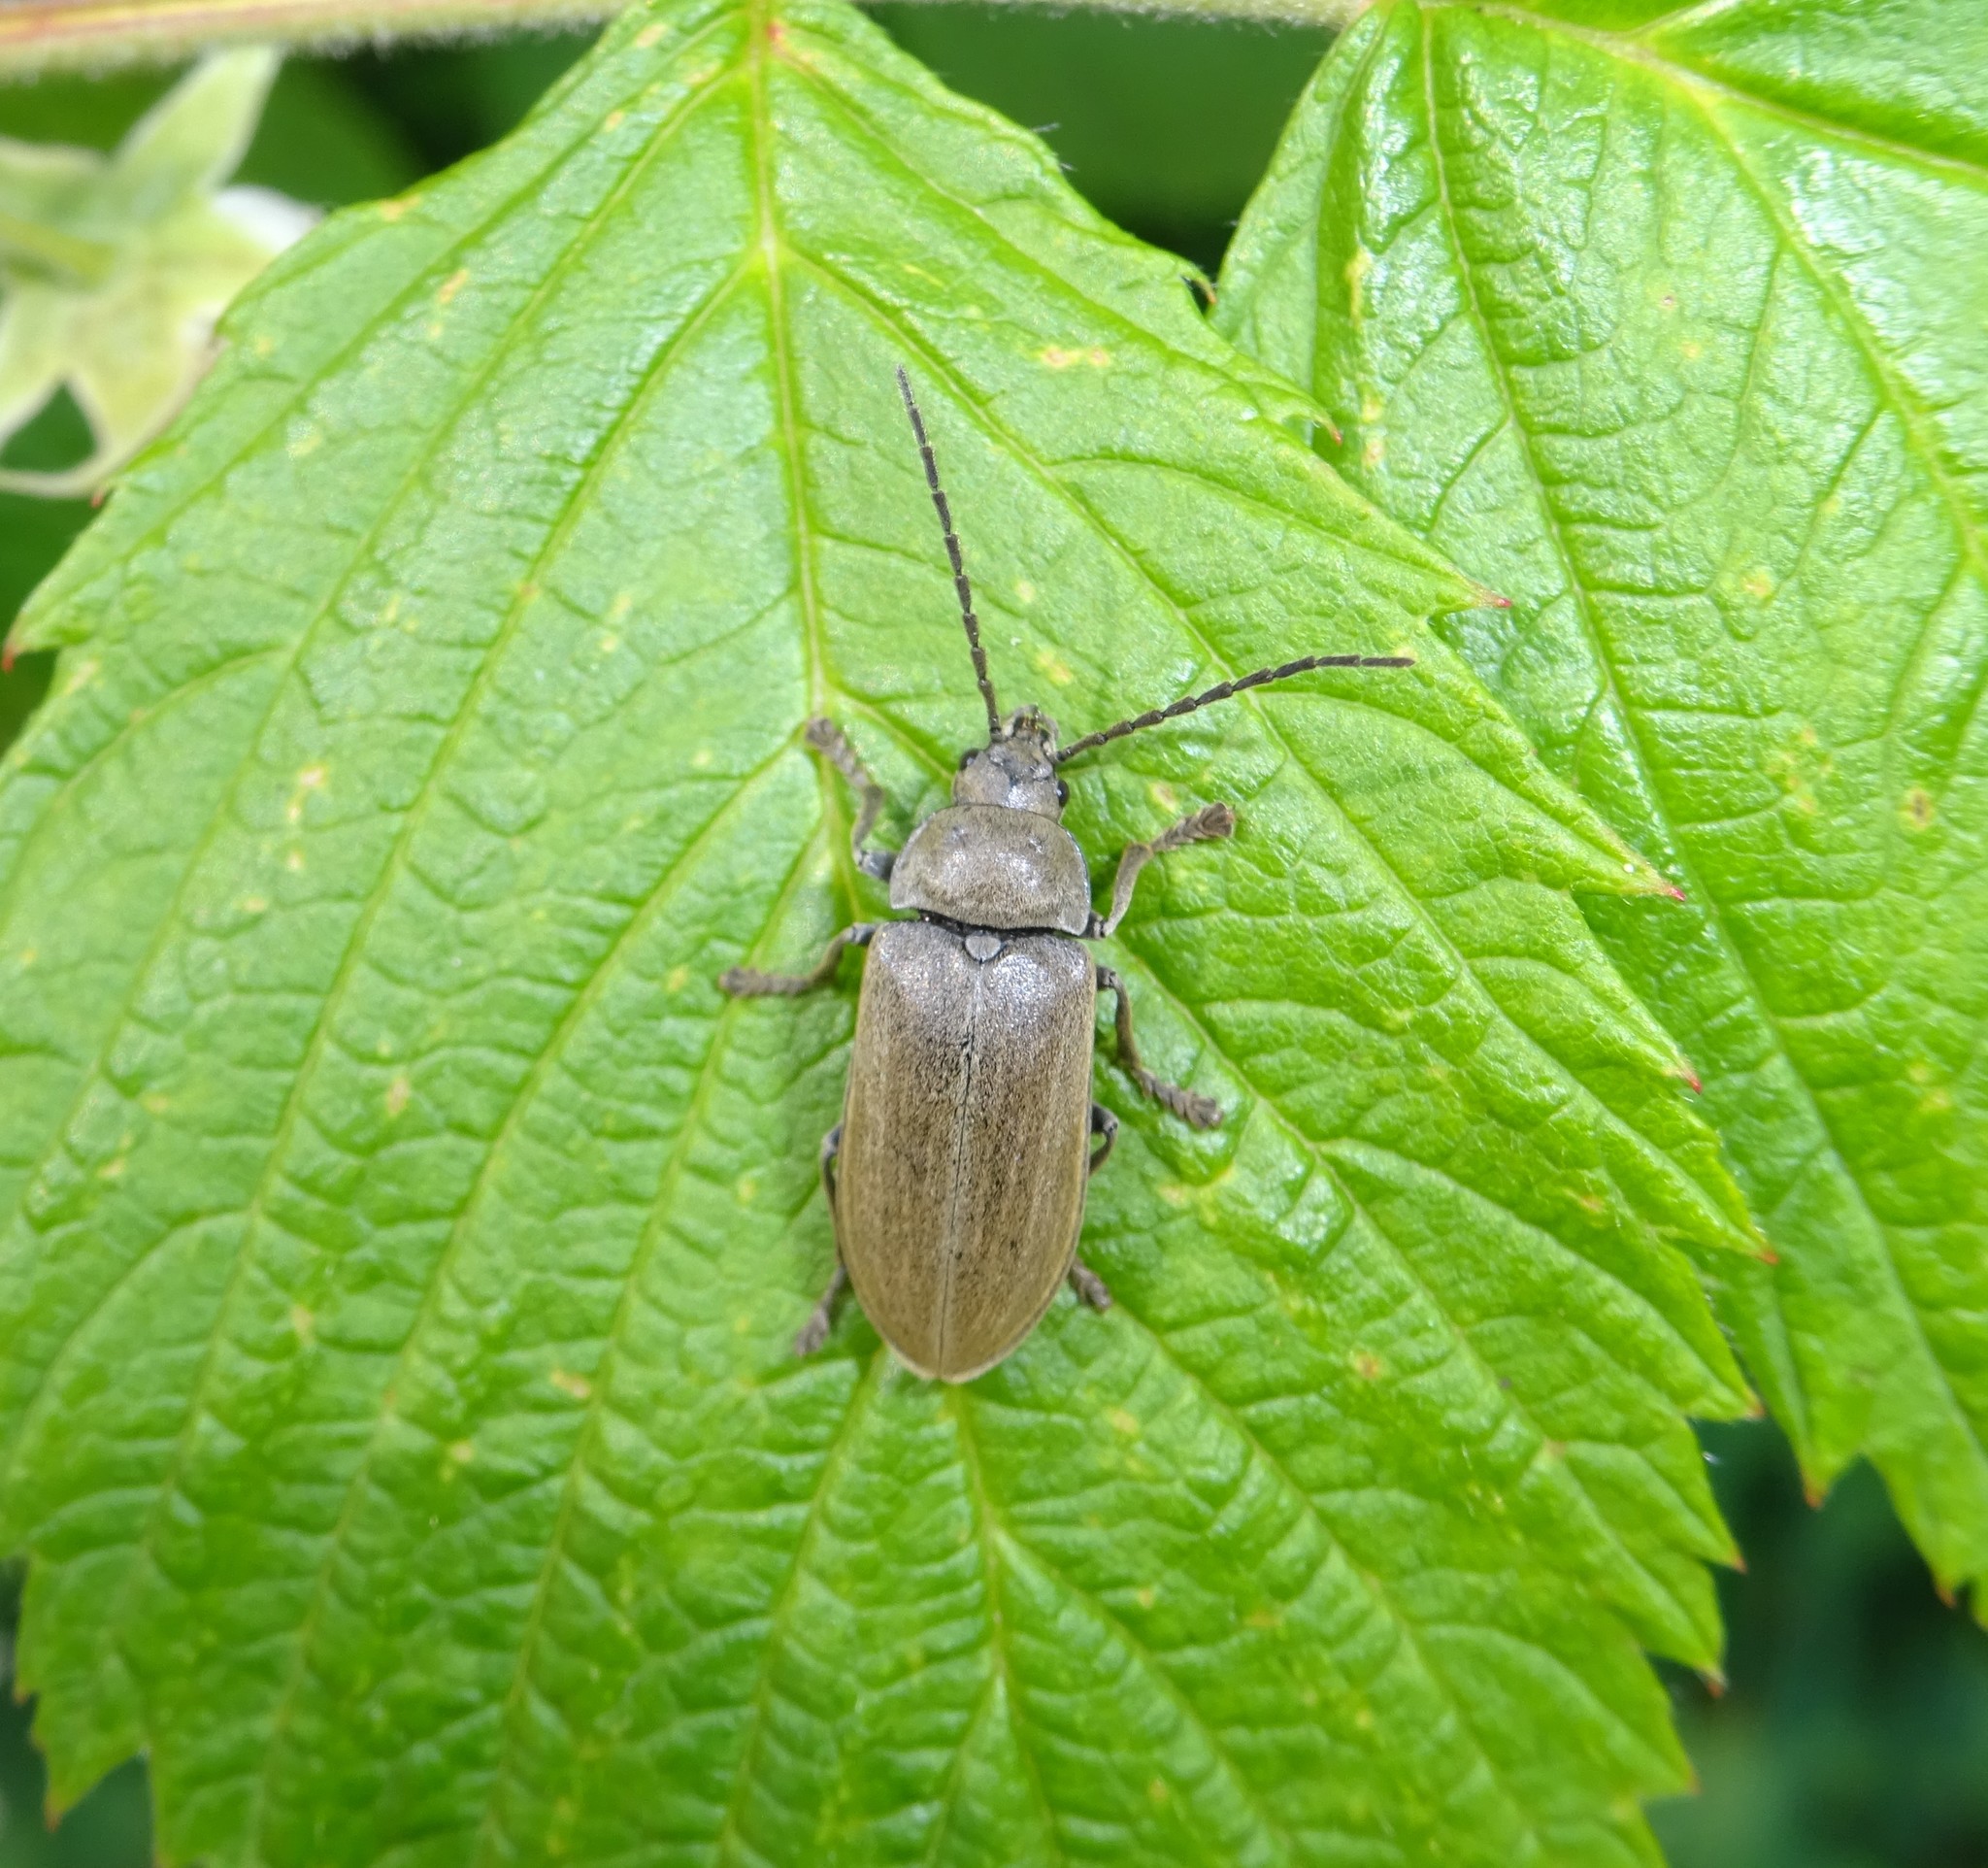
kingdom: Animalia
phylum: Arthropoda
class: Insecta
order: Coleoptera
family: Dascillidae
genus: Dascillus
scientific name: Dascillus cervinus
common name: Orchid beetle
